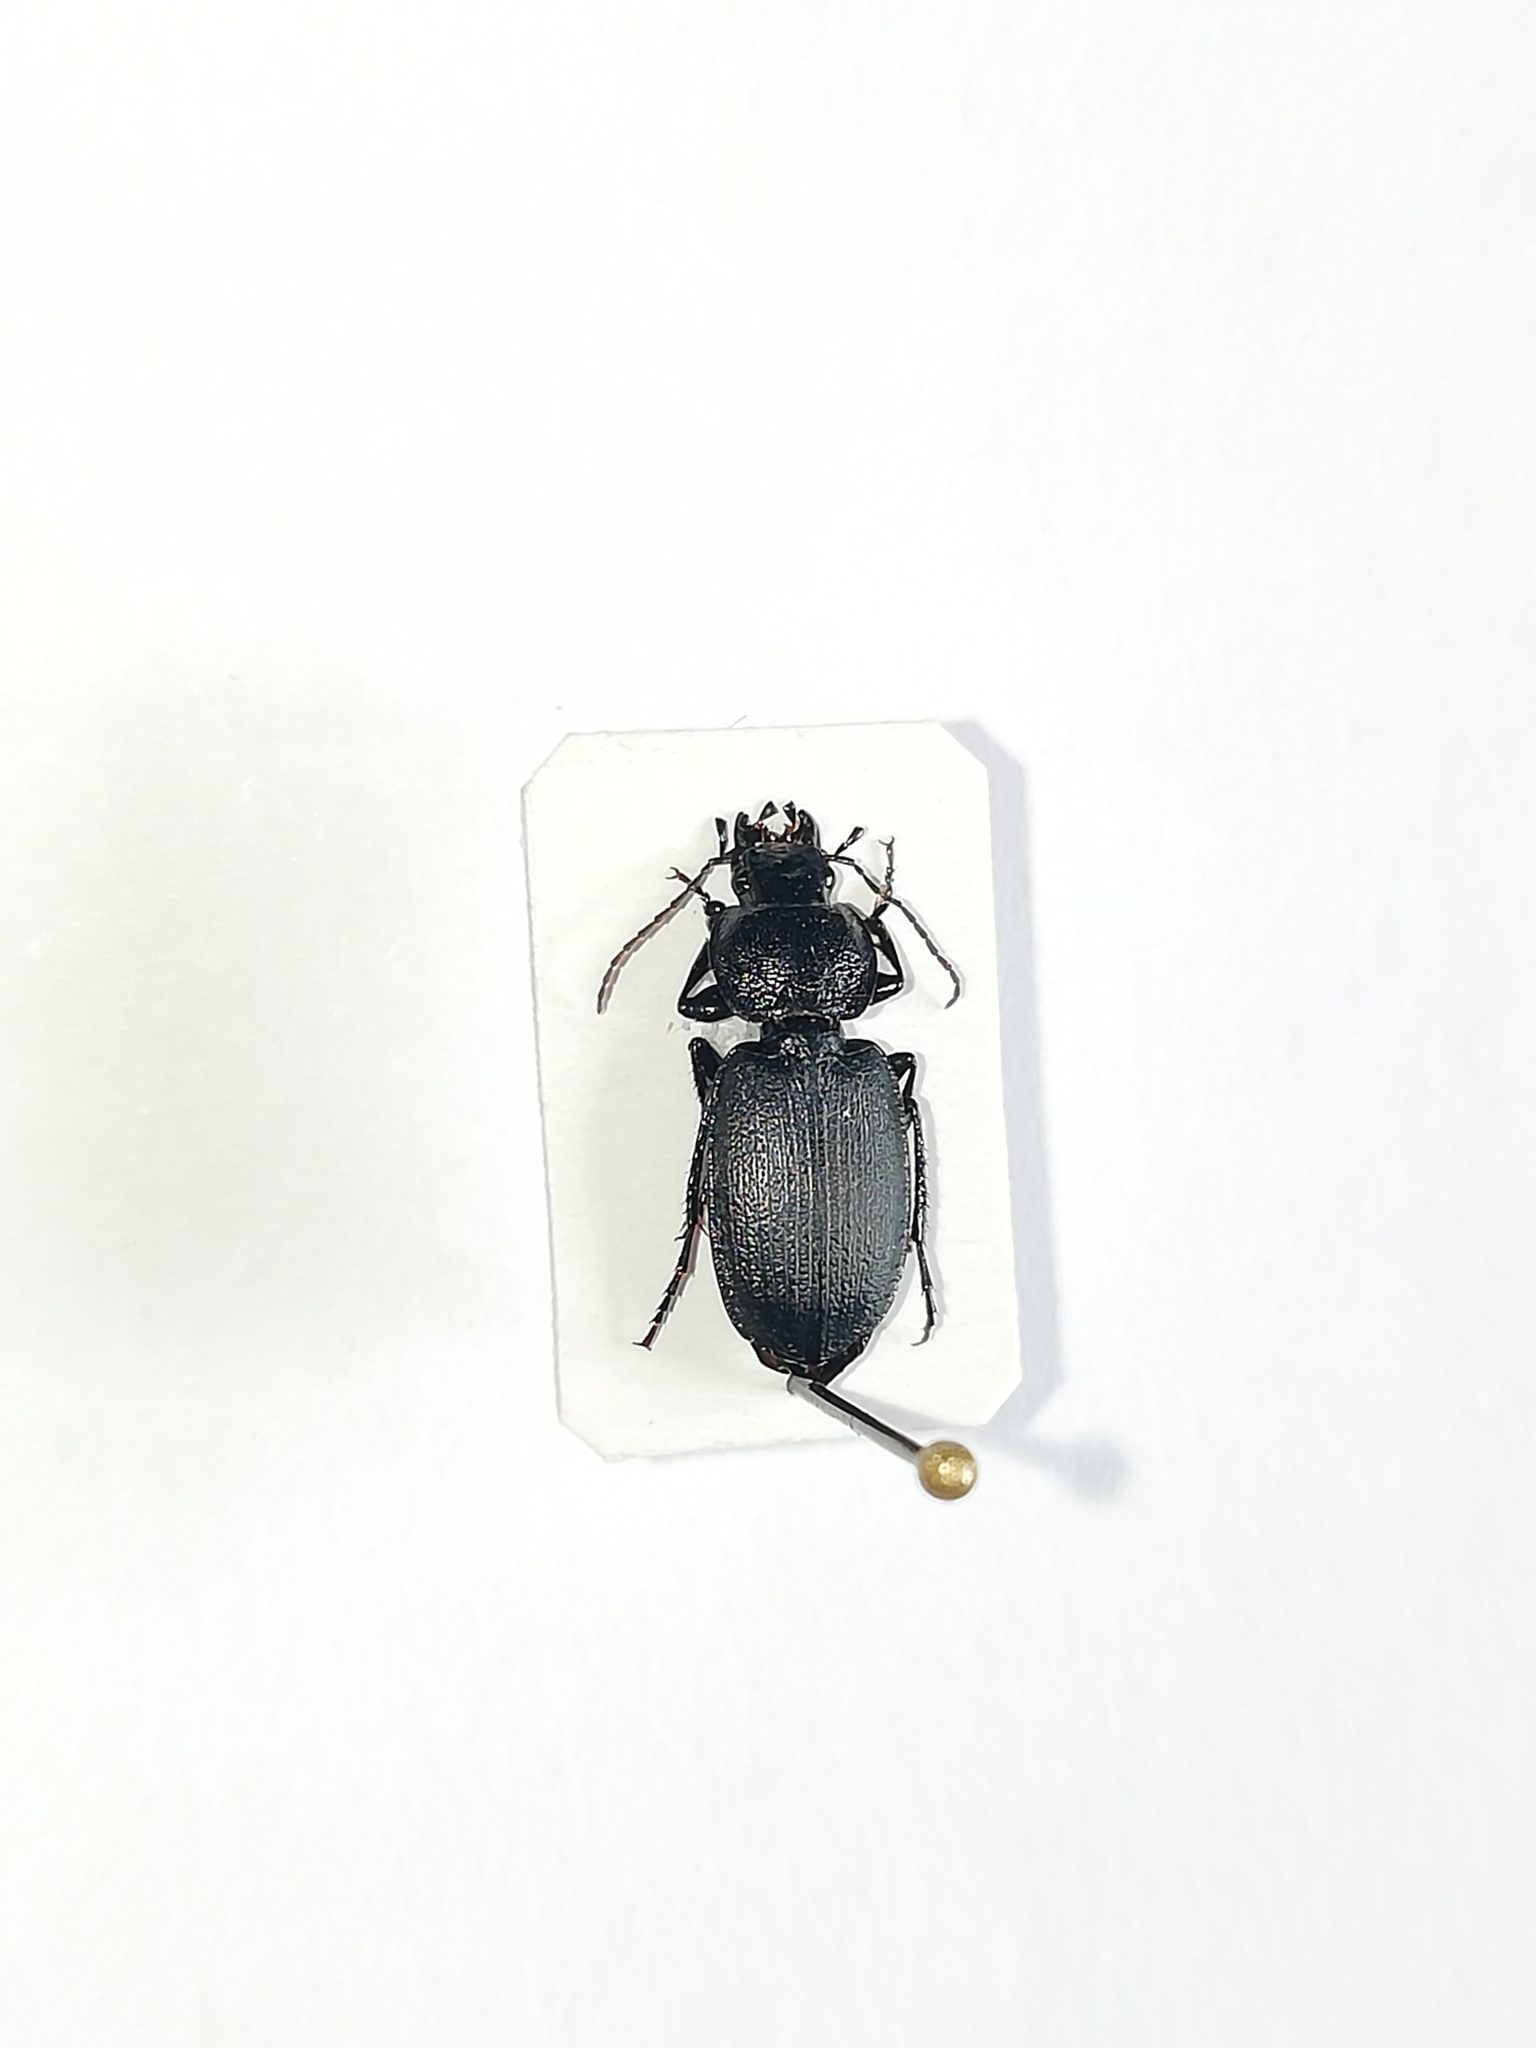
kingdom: Animalia
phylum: Arthropoda
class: Insecta
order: Coleoptera
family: Carabidae
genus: Licinus
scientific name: Licinus depressus
